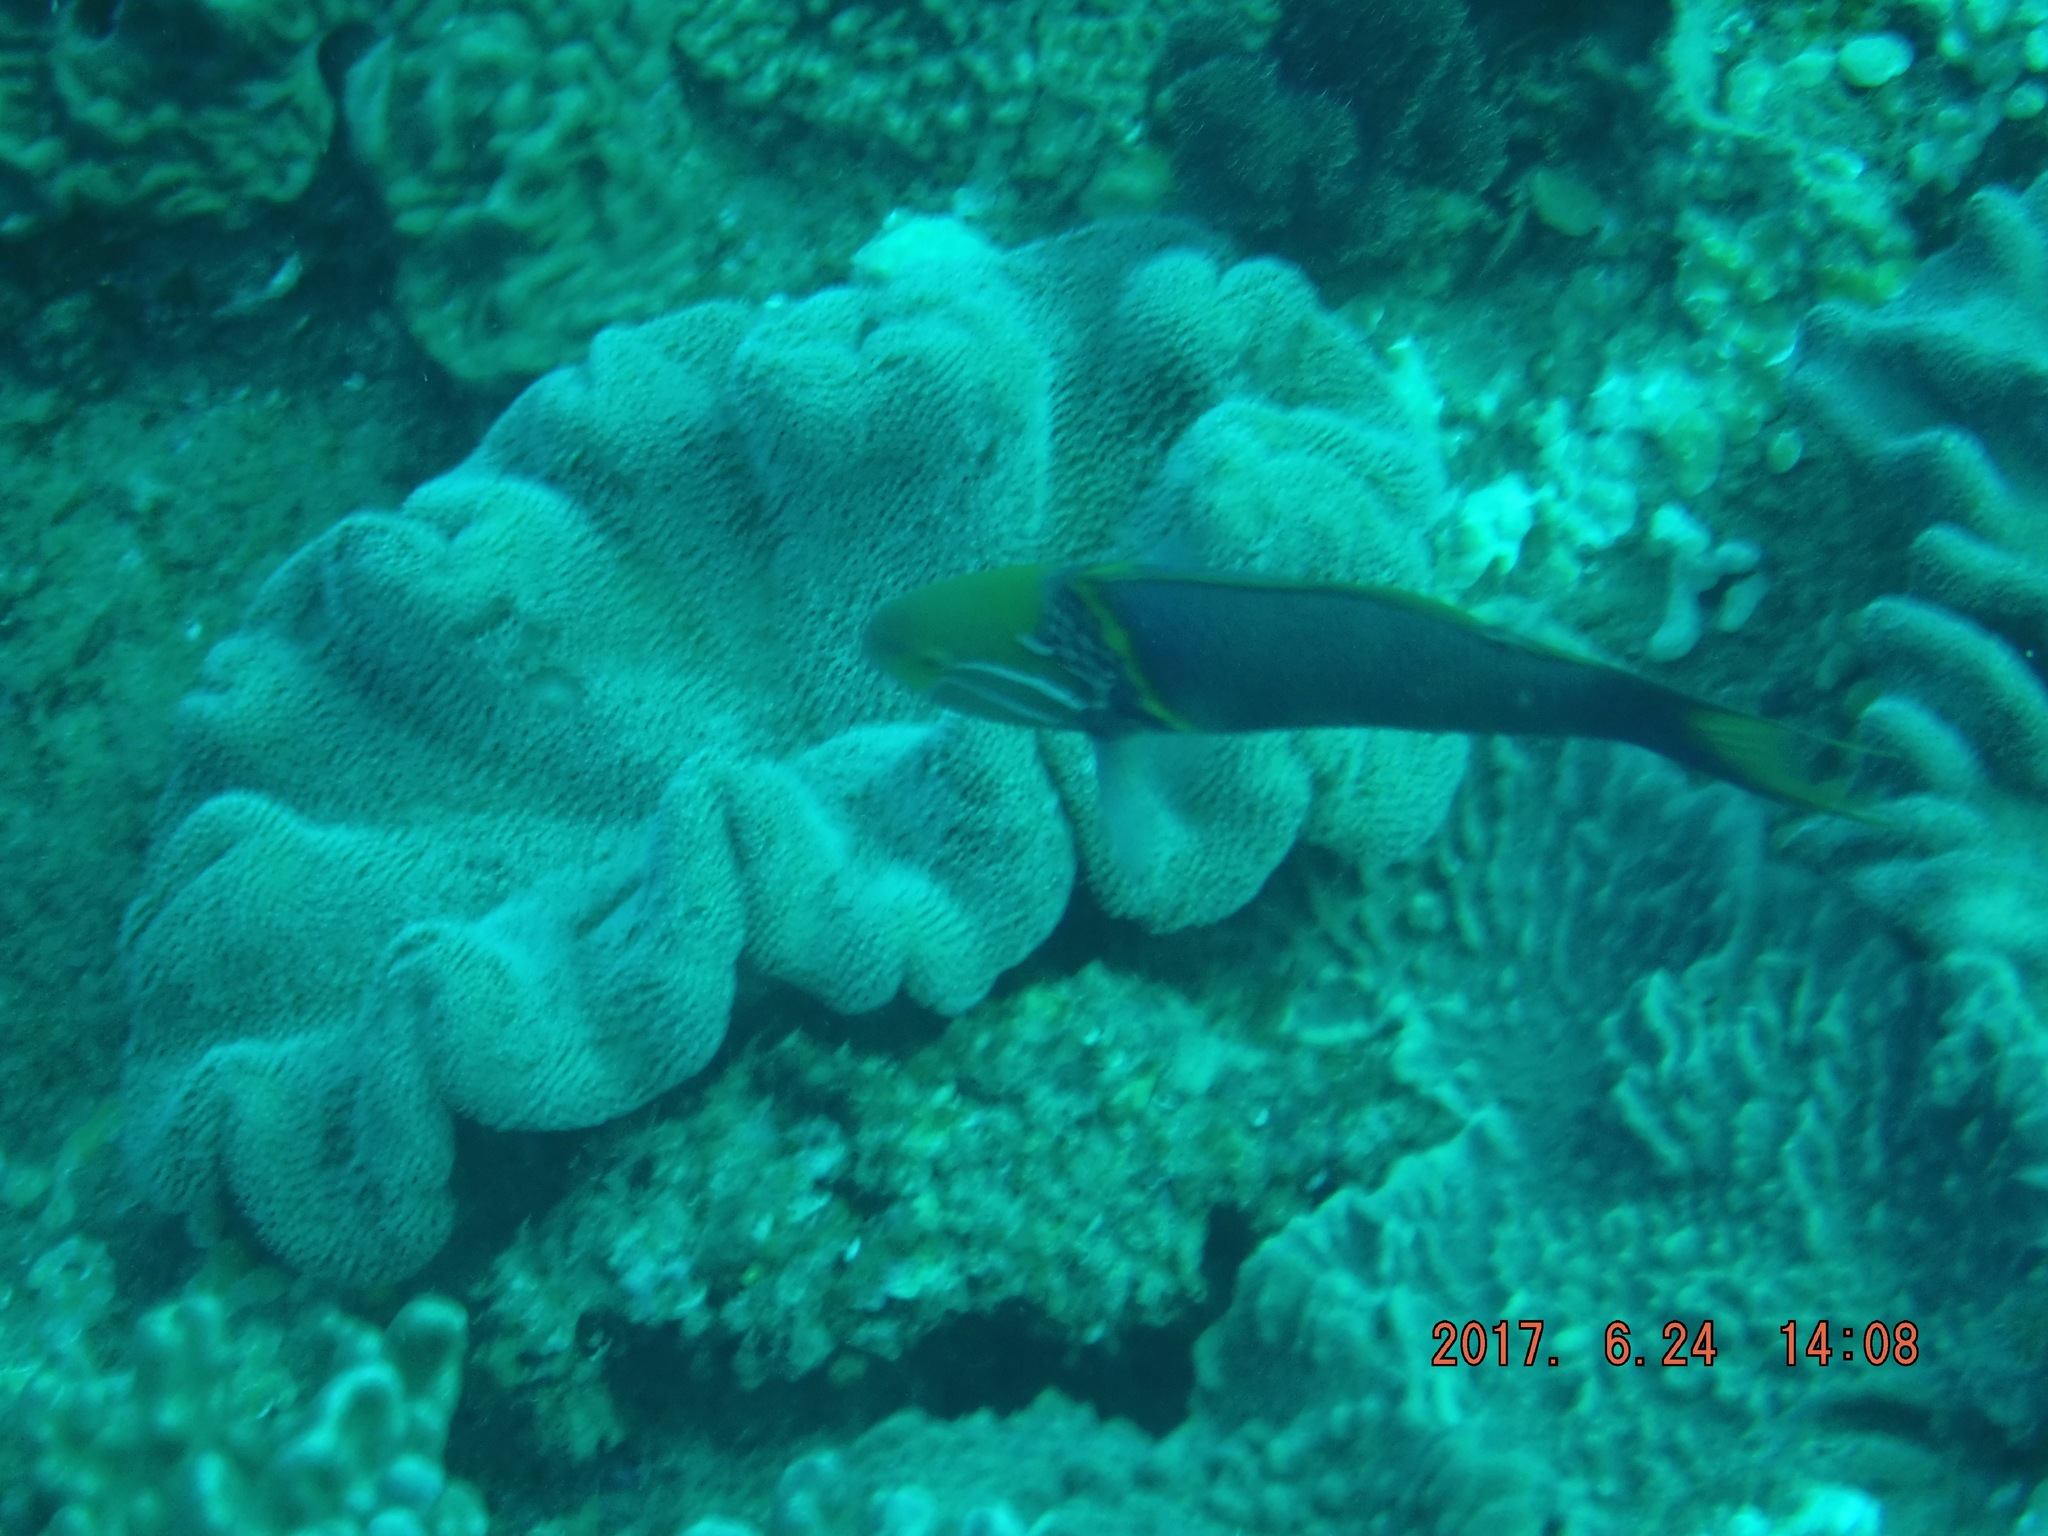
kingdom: Animalia
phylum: Chordata
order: Perciformes
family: Labridae
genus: Thalassoma
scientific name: Thalassoma hebraicum
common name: Goldbar wrasse
